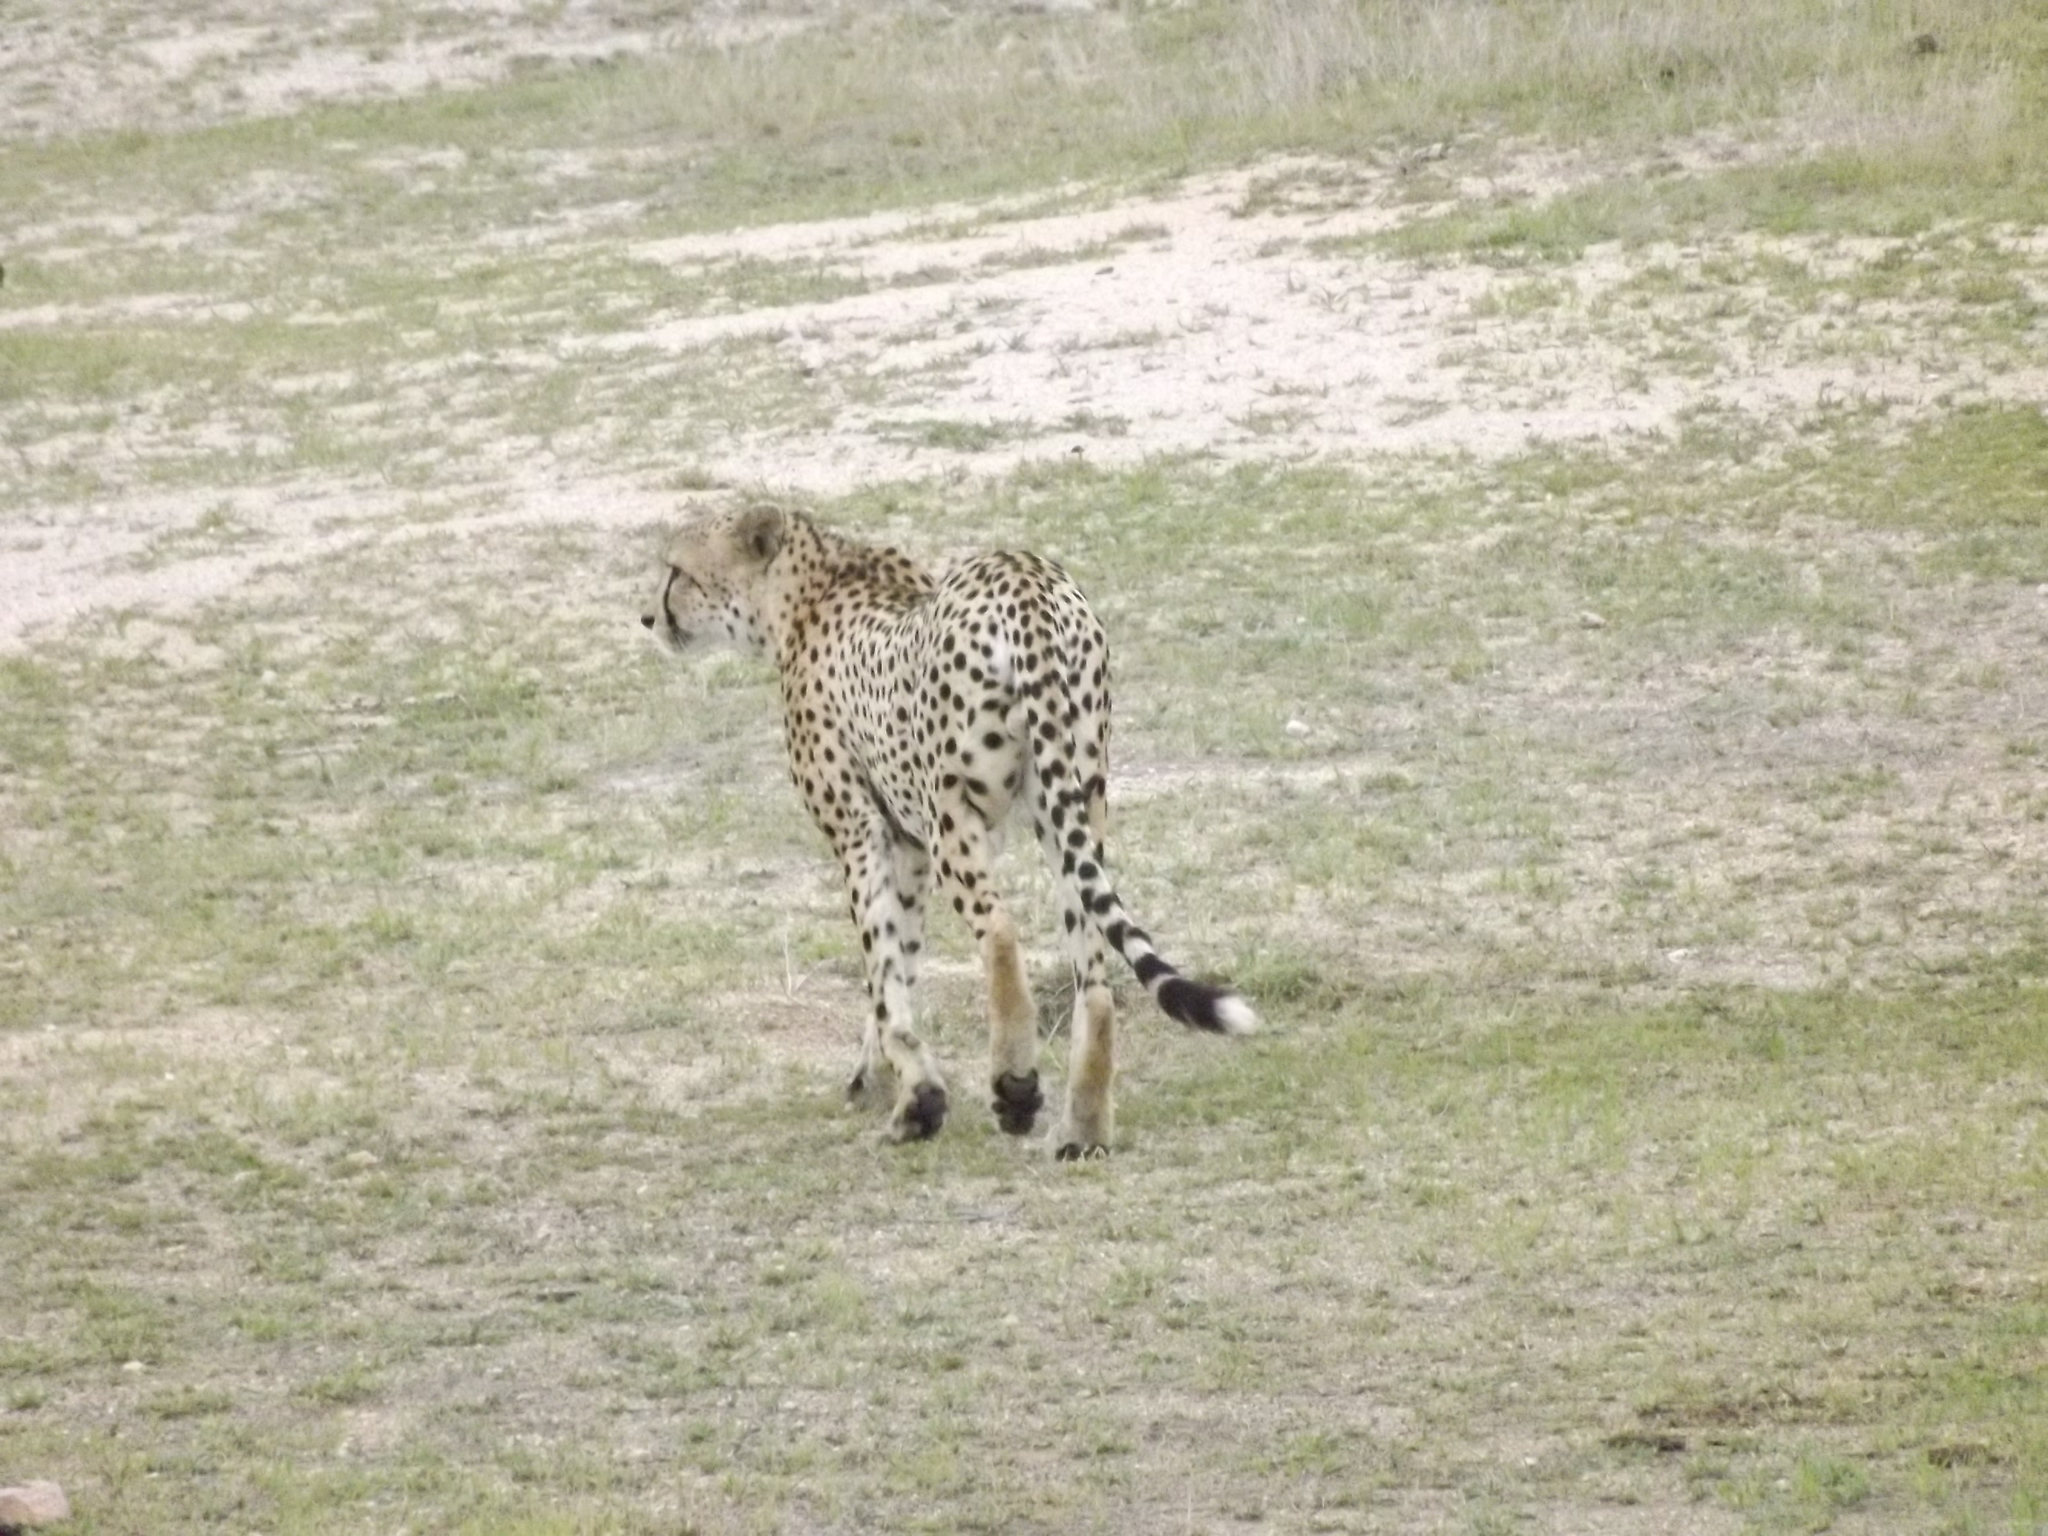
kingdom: Animalia
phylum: Chordata
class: Mammalia
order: Carnivora
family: Felidae
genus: Acinonyx
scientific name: Acinonyx jubatus
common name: Cheetah
